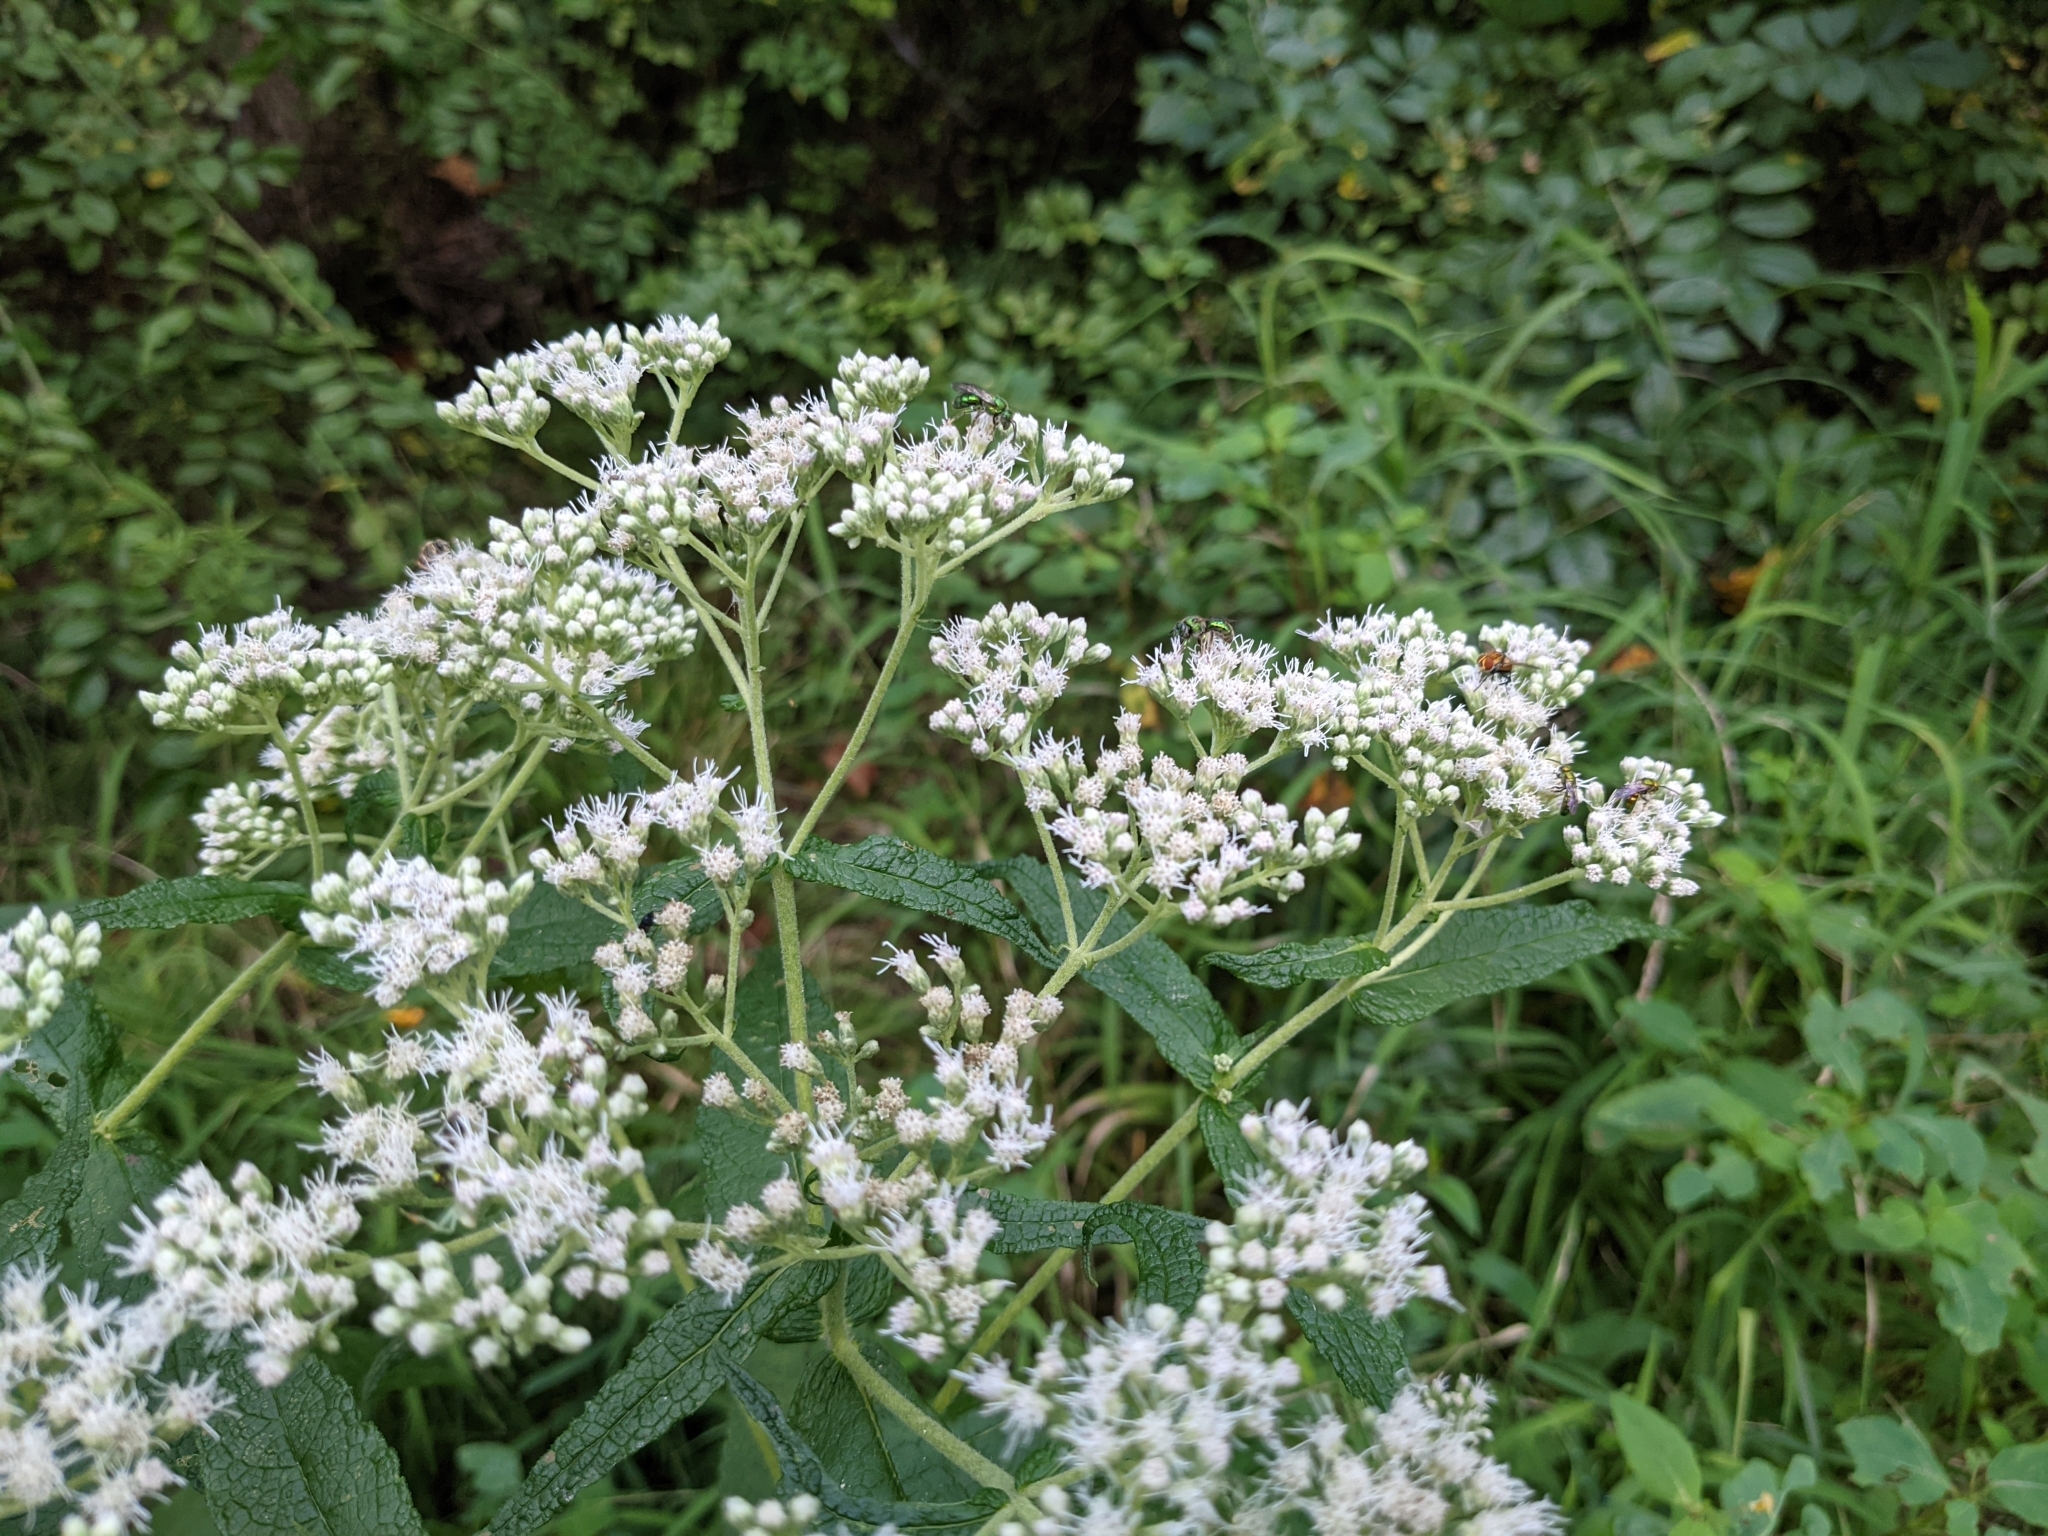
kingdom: Plantae
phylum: Tracheophyta
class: Magnoliopsida
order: Asterales
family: Asteraceae
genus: Eupatorium
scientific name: Eupatorium perfoliatum
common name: Boneset
